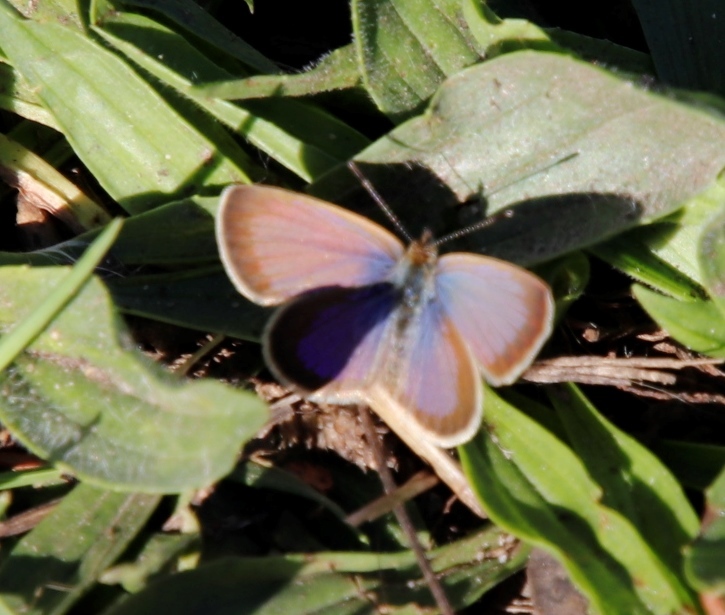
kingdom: Animalia
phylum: Arthropoda
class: Insecta
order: Lepidoptera
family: Lycaenidae
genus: Zizeeria
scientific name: Zizeeria knysna
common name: African grass blue
